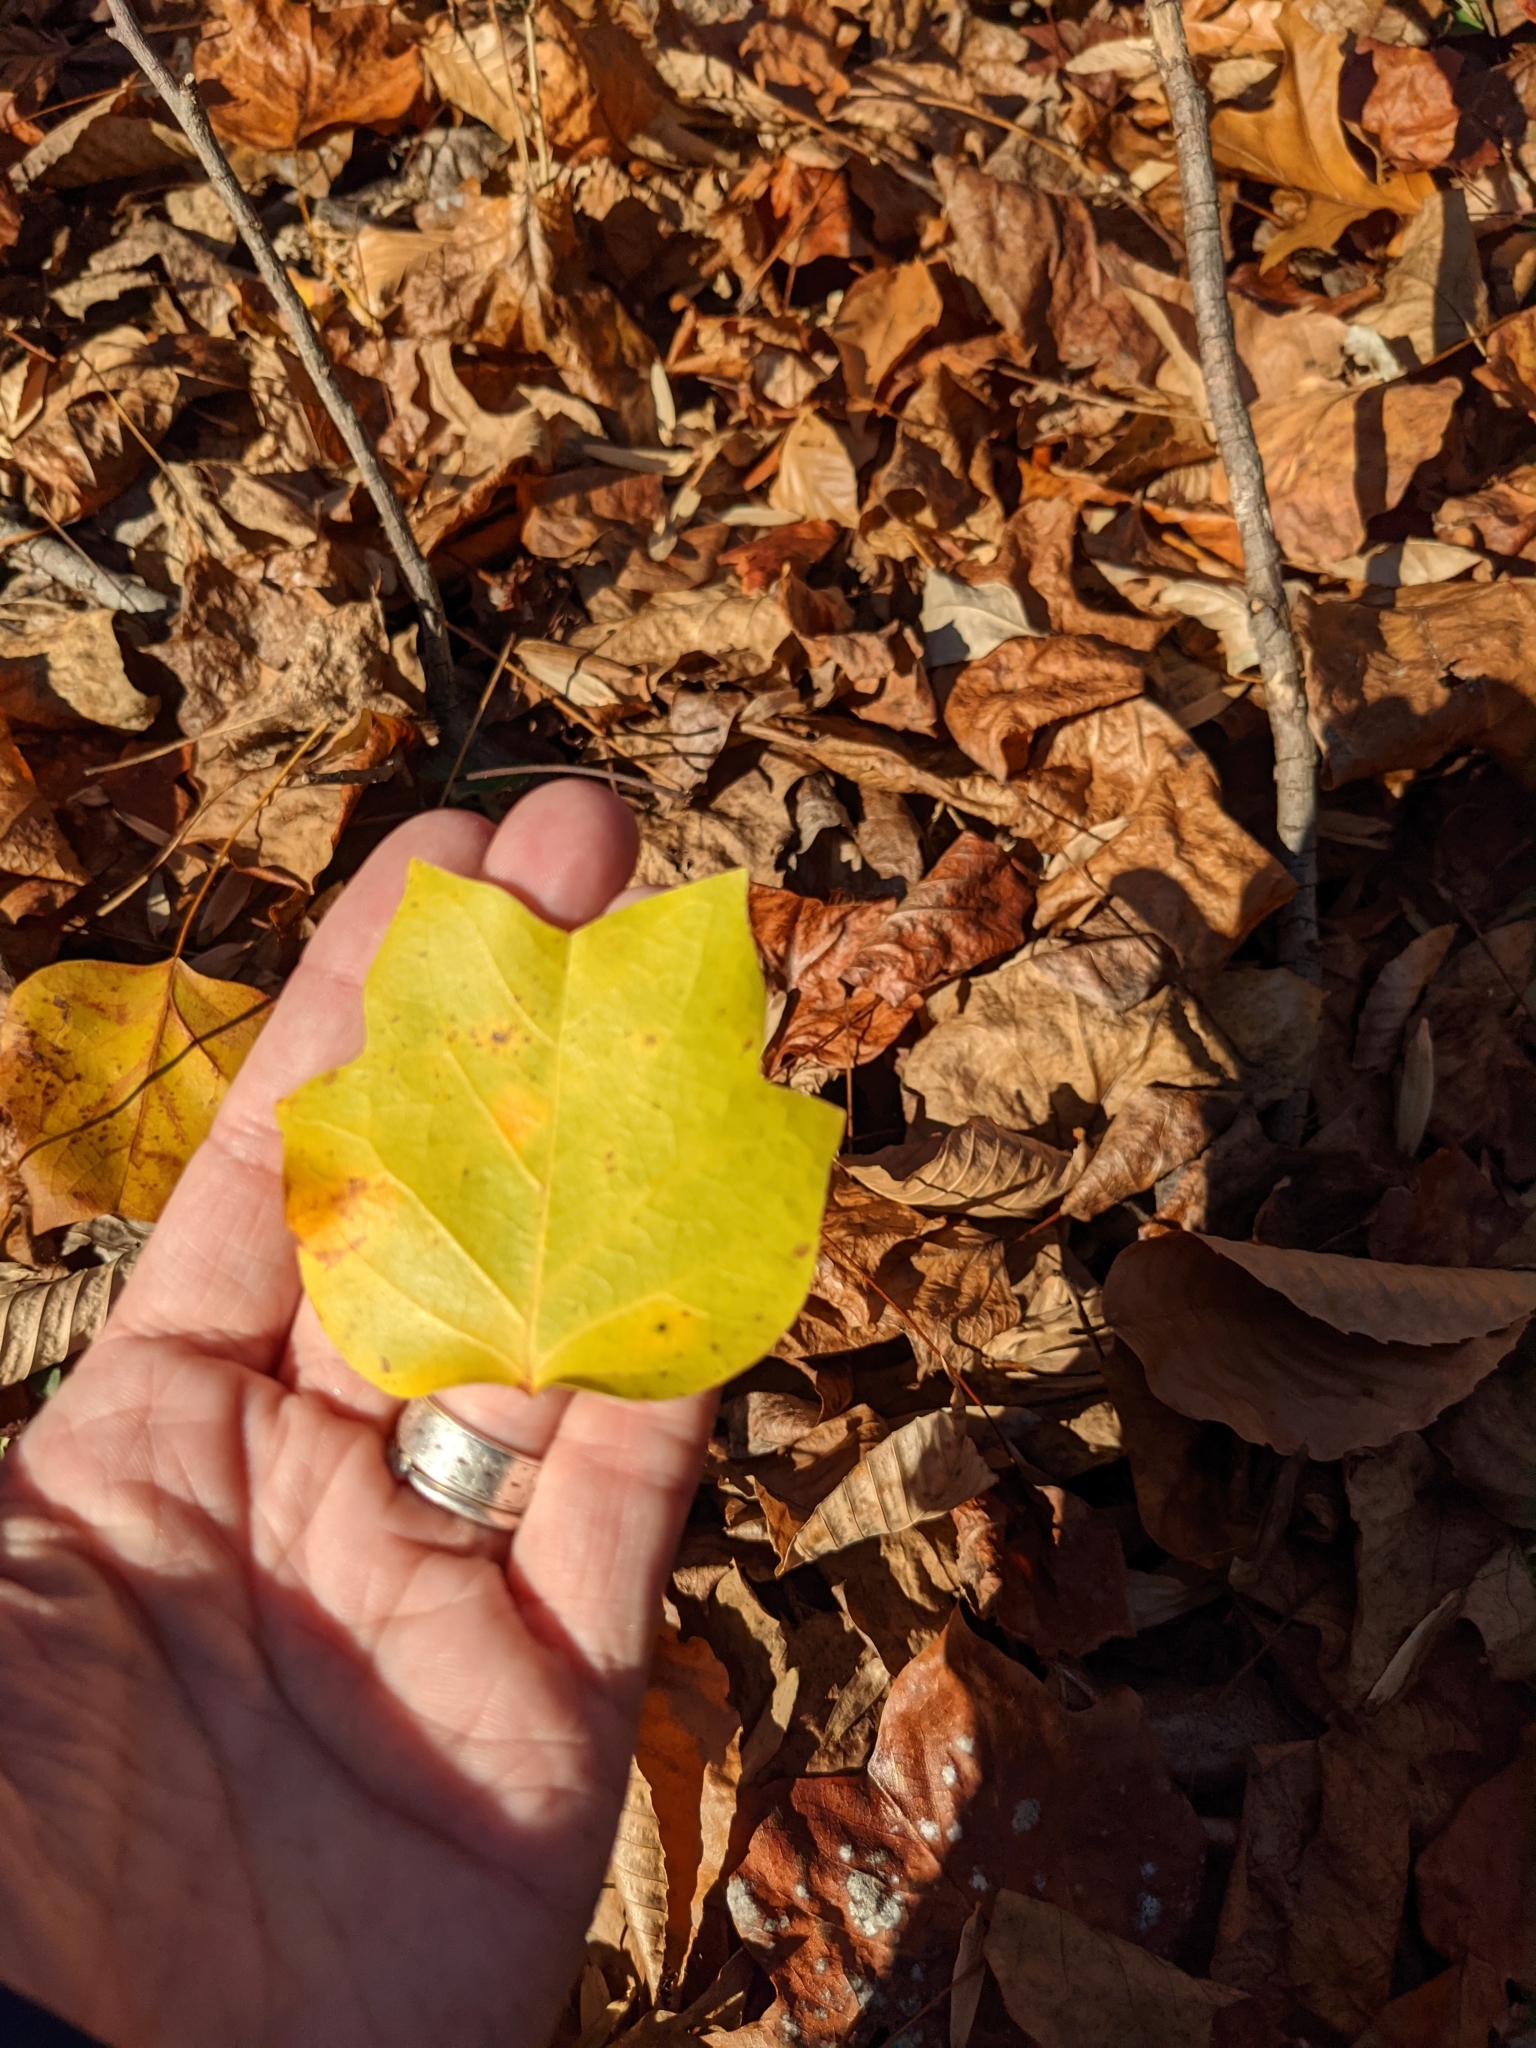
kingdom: Plantae
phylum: Tracheophyta
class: Magnoliopsida
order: Magnoliales
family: Magnoliaceae
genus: Liriodendron
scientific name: Liriodendron tulipifera
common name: Tulip tree
